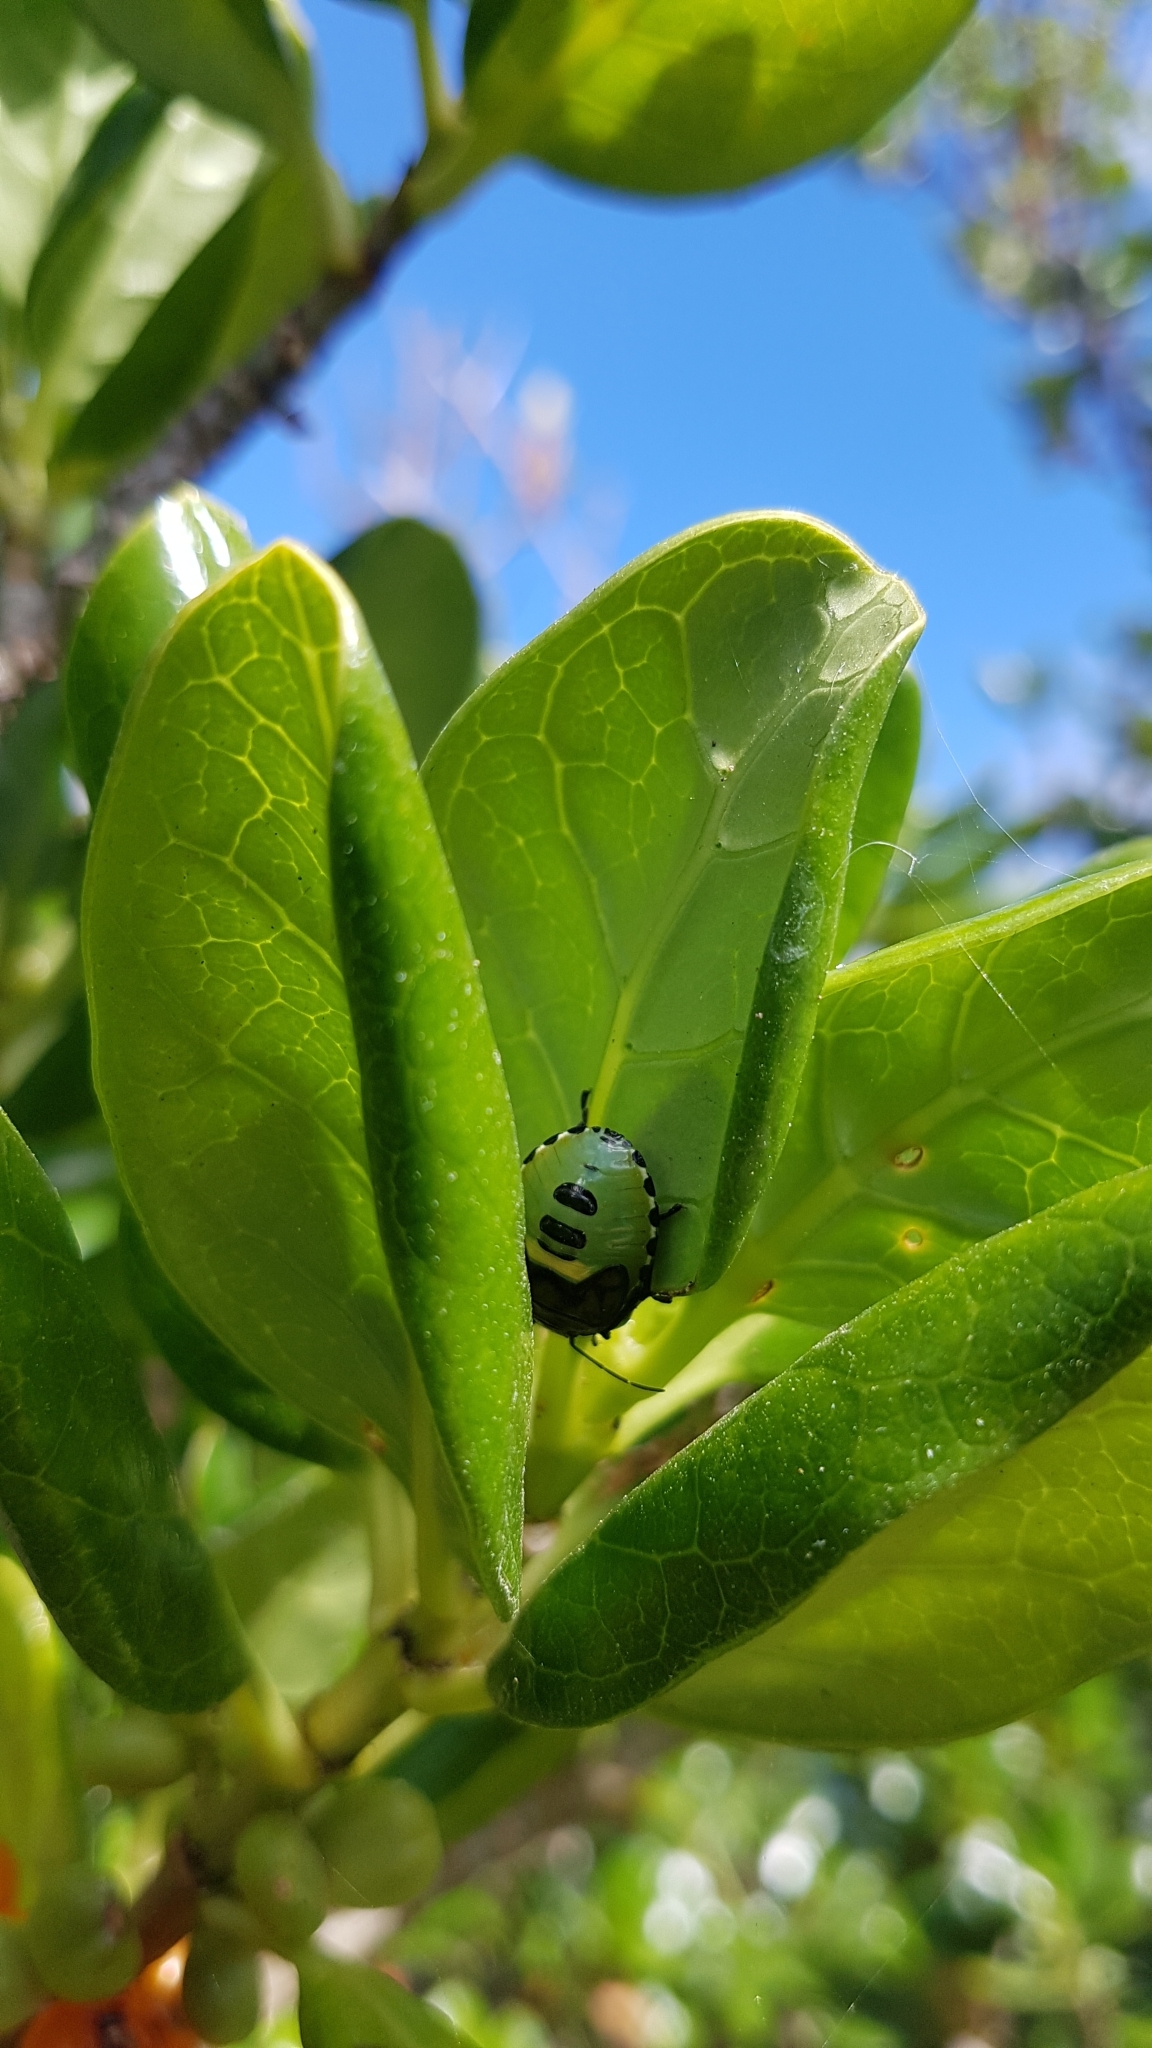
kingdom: Animalia
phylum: Arthropoda
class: Insecta
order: Hemiptera
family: Pentatomidae
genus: Glaucias
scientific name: Glaucias amyota
